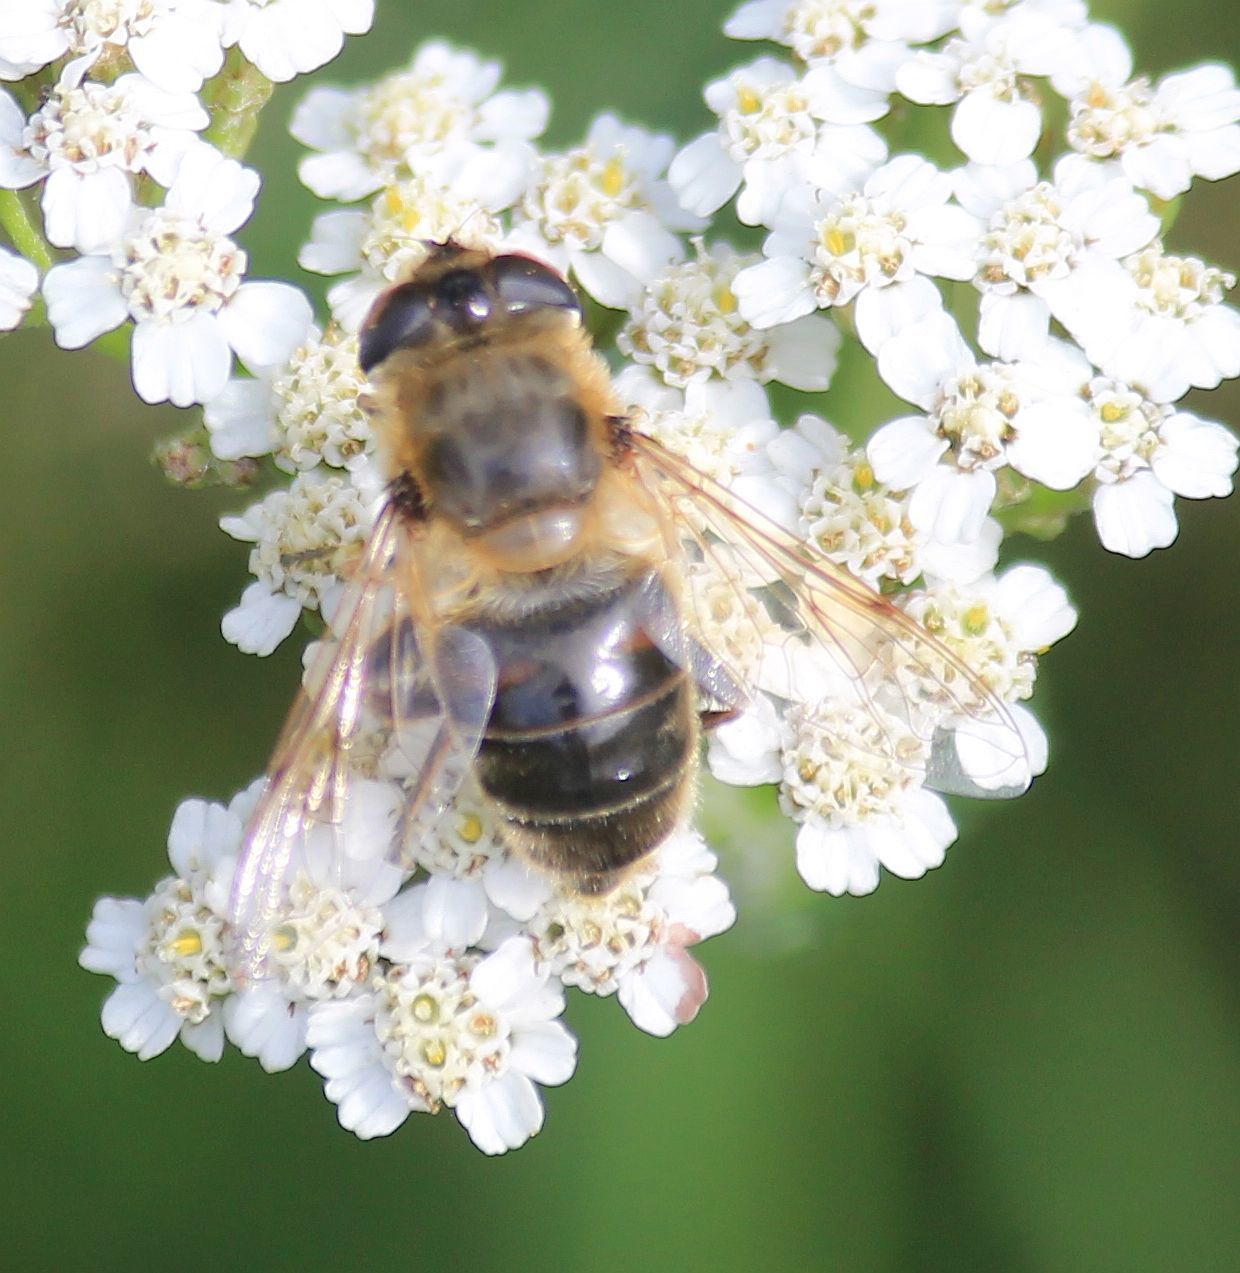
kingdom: Animalia
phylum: Arthropoda
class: Insecta
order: Diptera
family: Syrphidae
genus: Eristalis
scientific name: Eristalis tenax
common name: Drone fly
